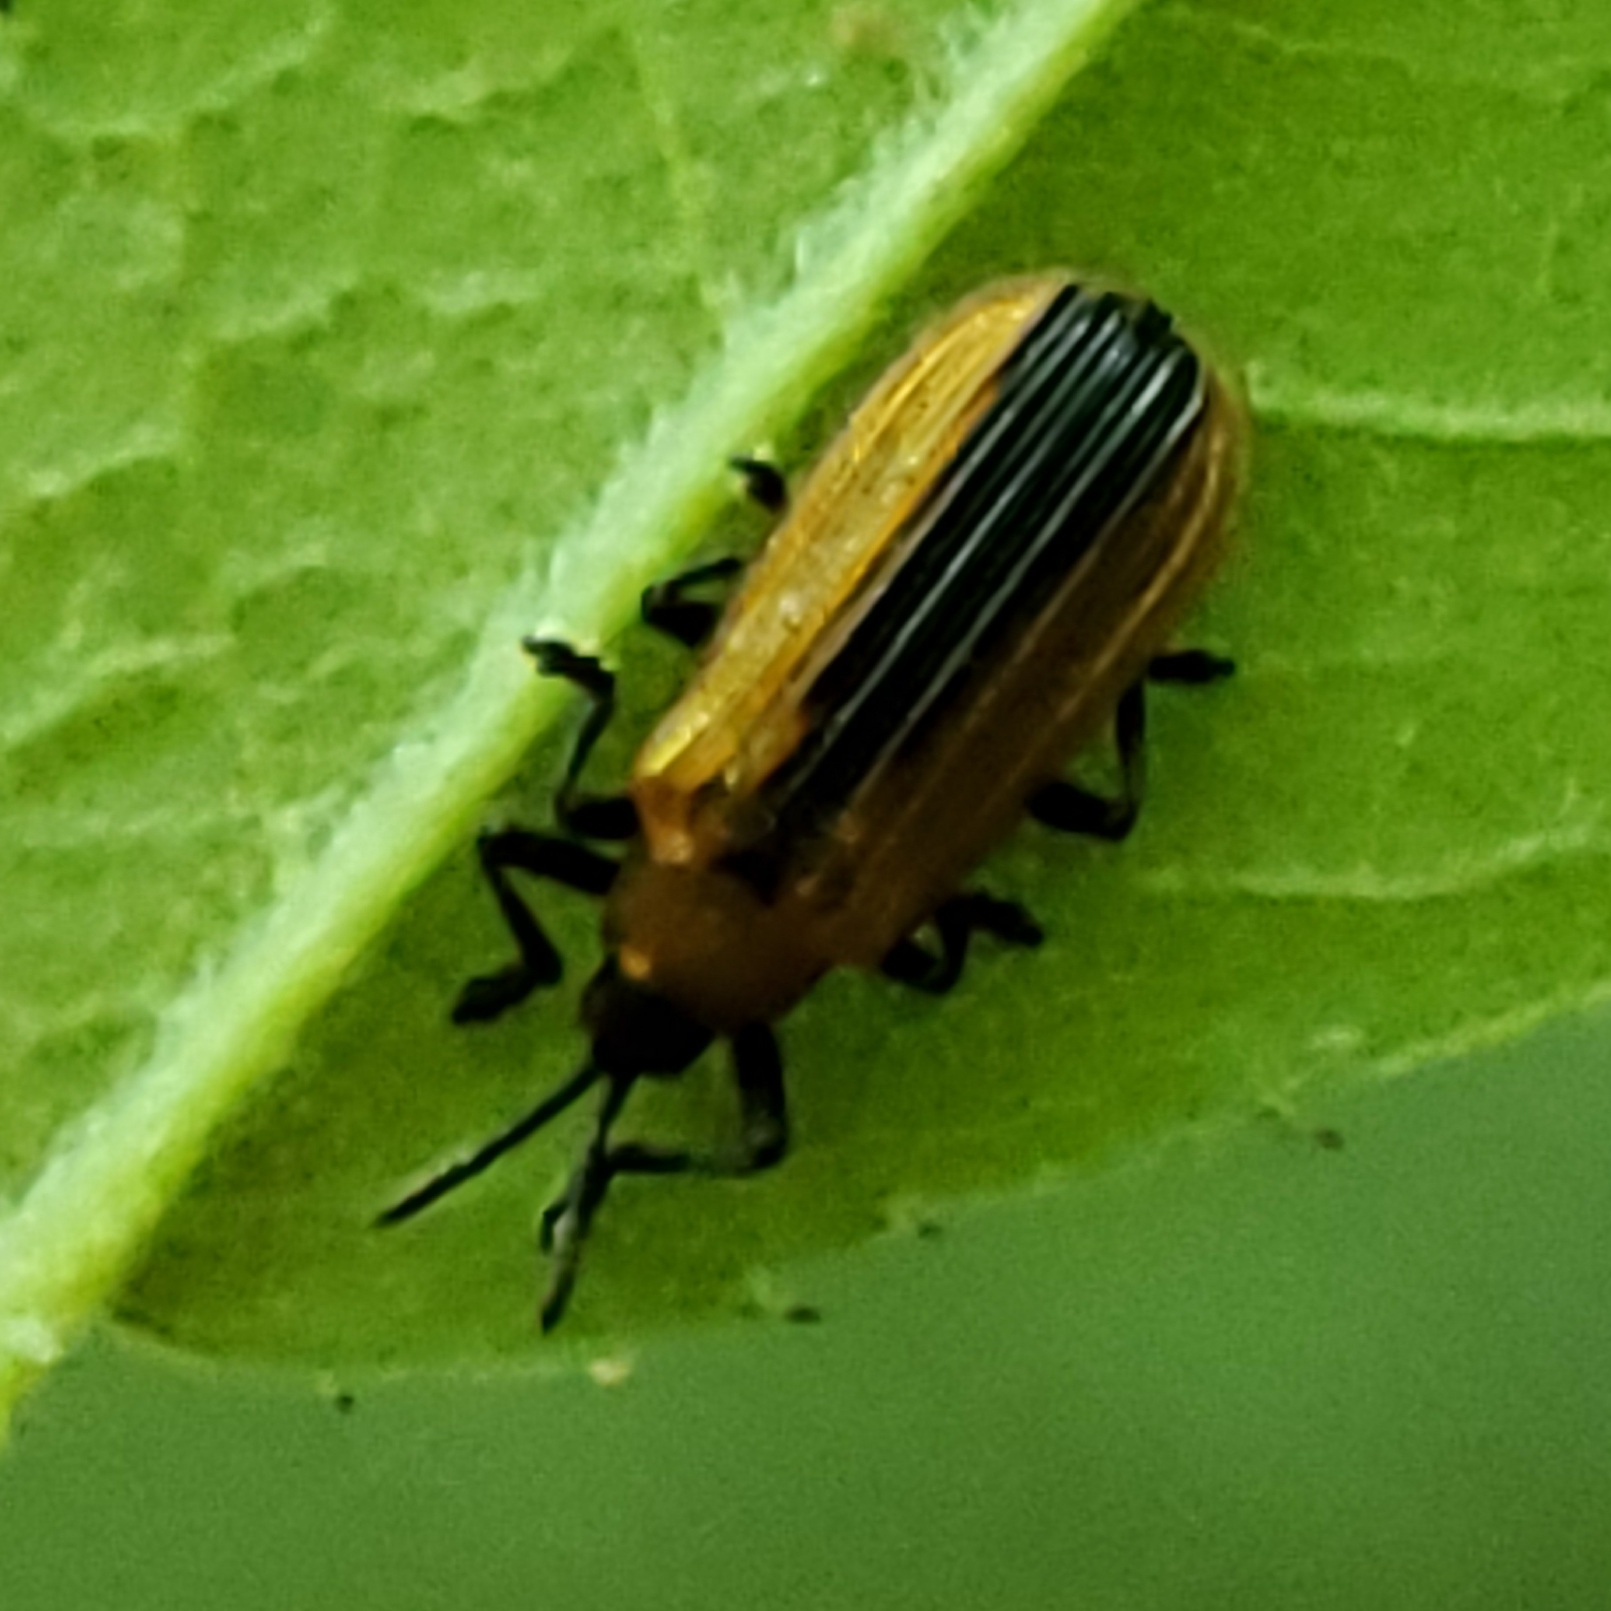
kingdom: Animalia
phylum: Arthropoda
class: Insecta
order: Coleoptera
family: Chrysomelidae
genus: Odontota
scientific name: Odontota dorsalis
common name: Locust leaf-miner beetle
